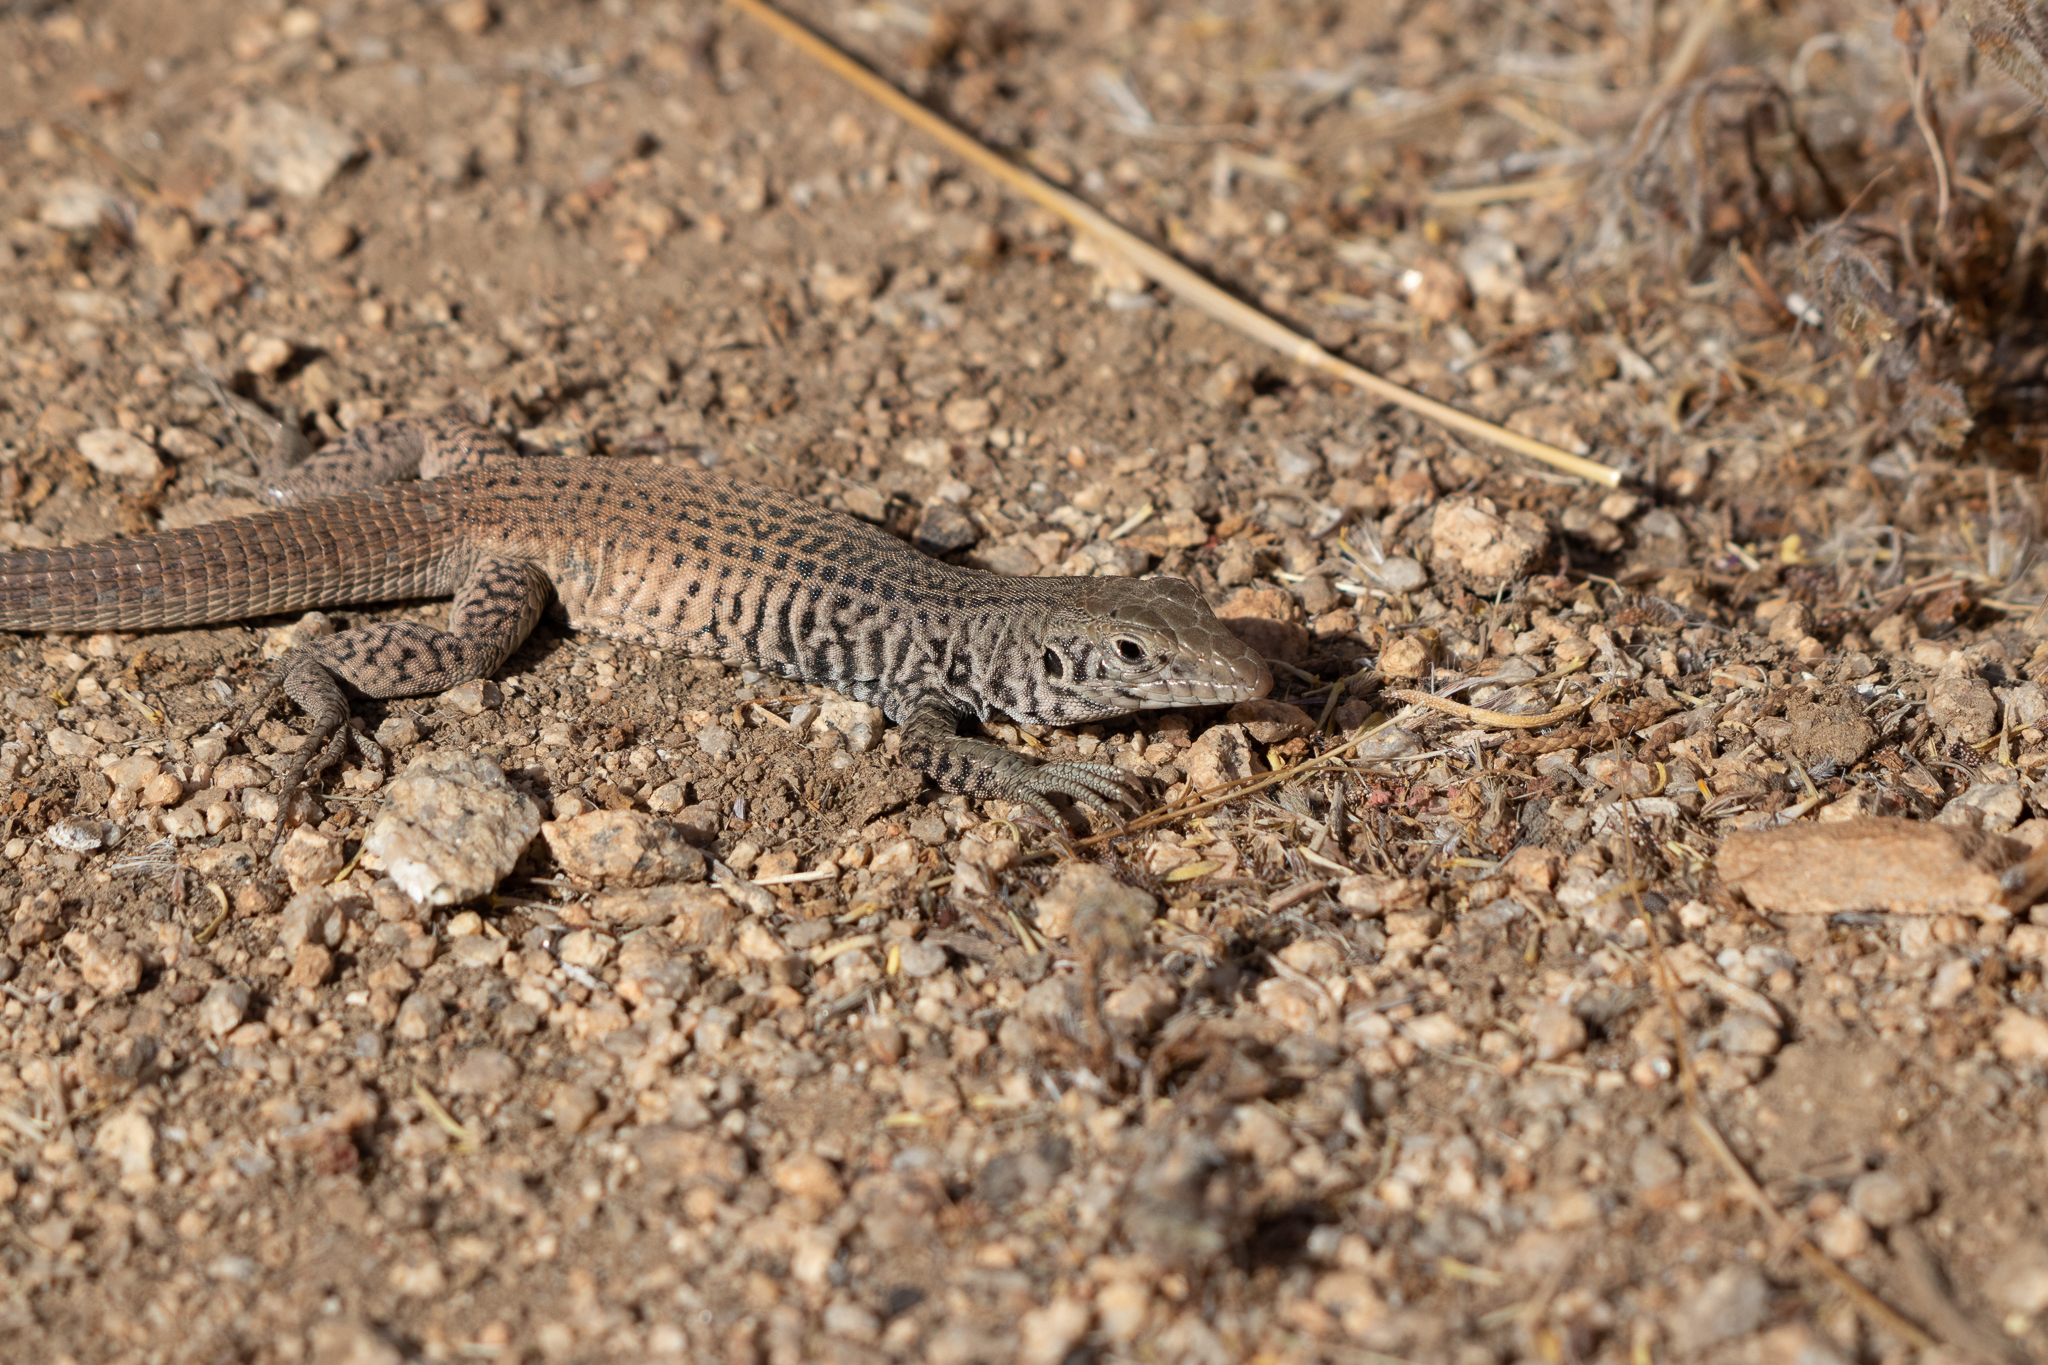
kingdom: Animalia
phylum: Chordata
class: Squamata
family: Teiidae
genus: Aspidoscelis
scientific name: Aspidoscelis tigris
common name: Tiger whiptail
